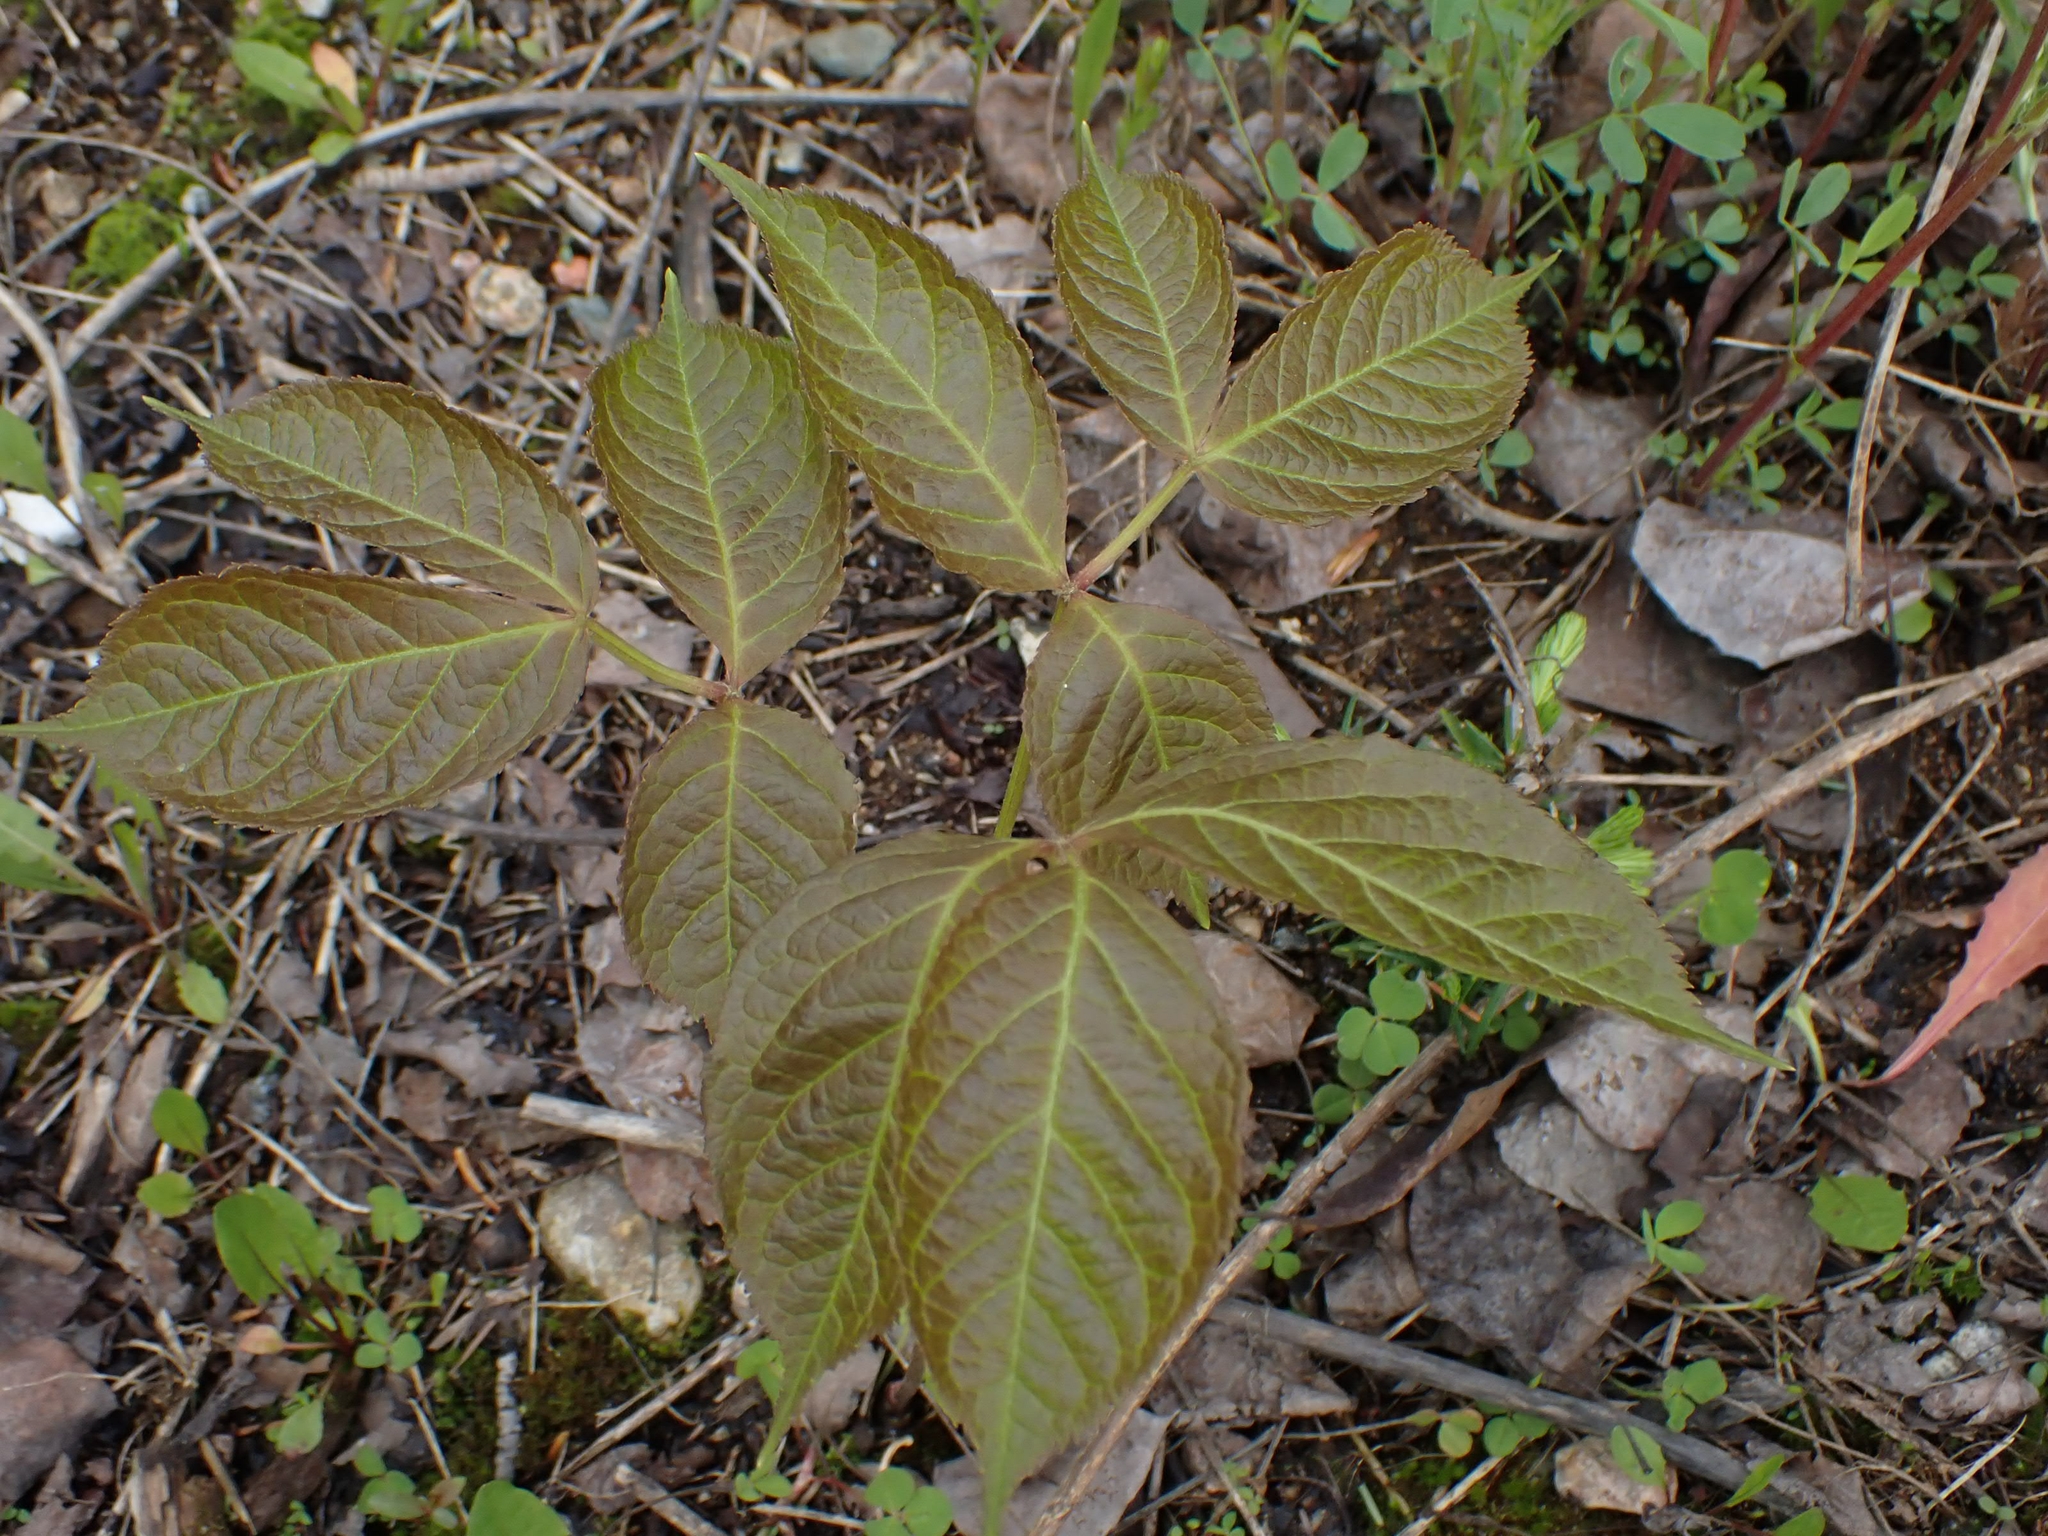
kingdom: Plantae
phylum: Tracheophyta
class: Magnoliopsida
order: Apiales
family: Araliaceae
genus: Aralia
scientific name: Aralia nudicaulis
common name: Wild sarsaparilla
